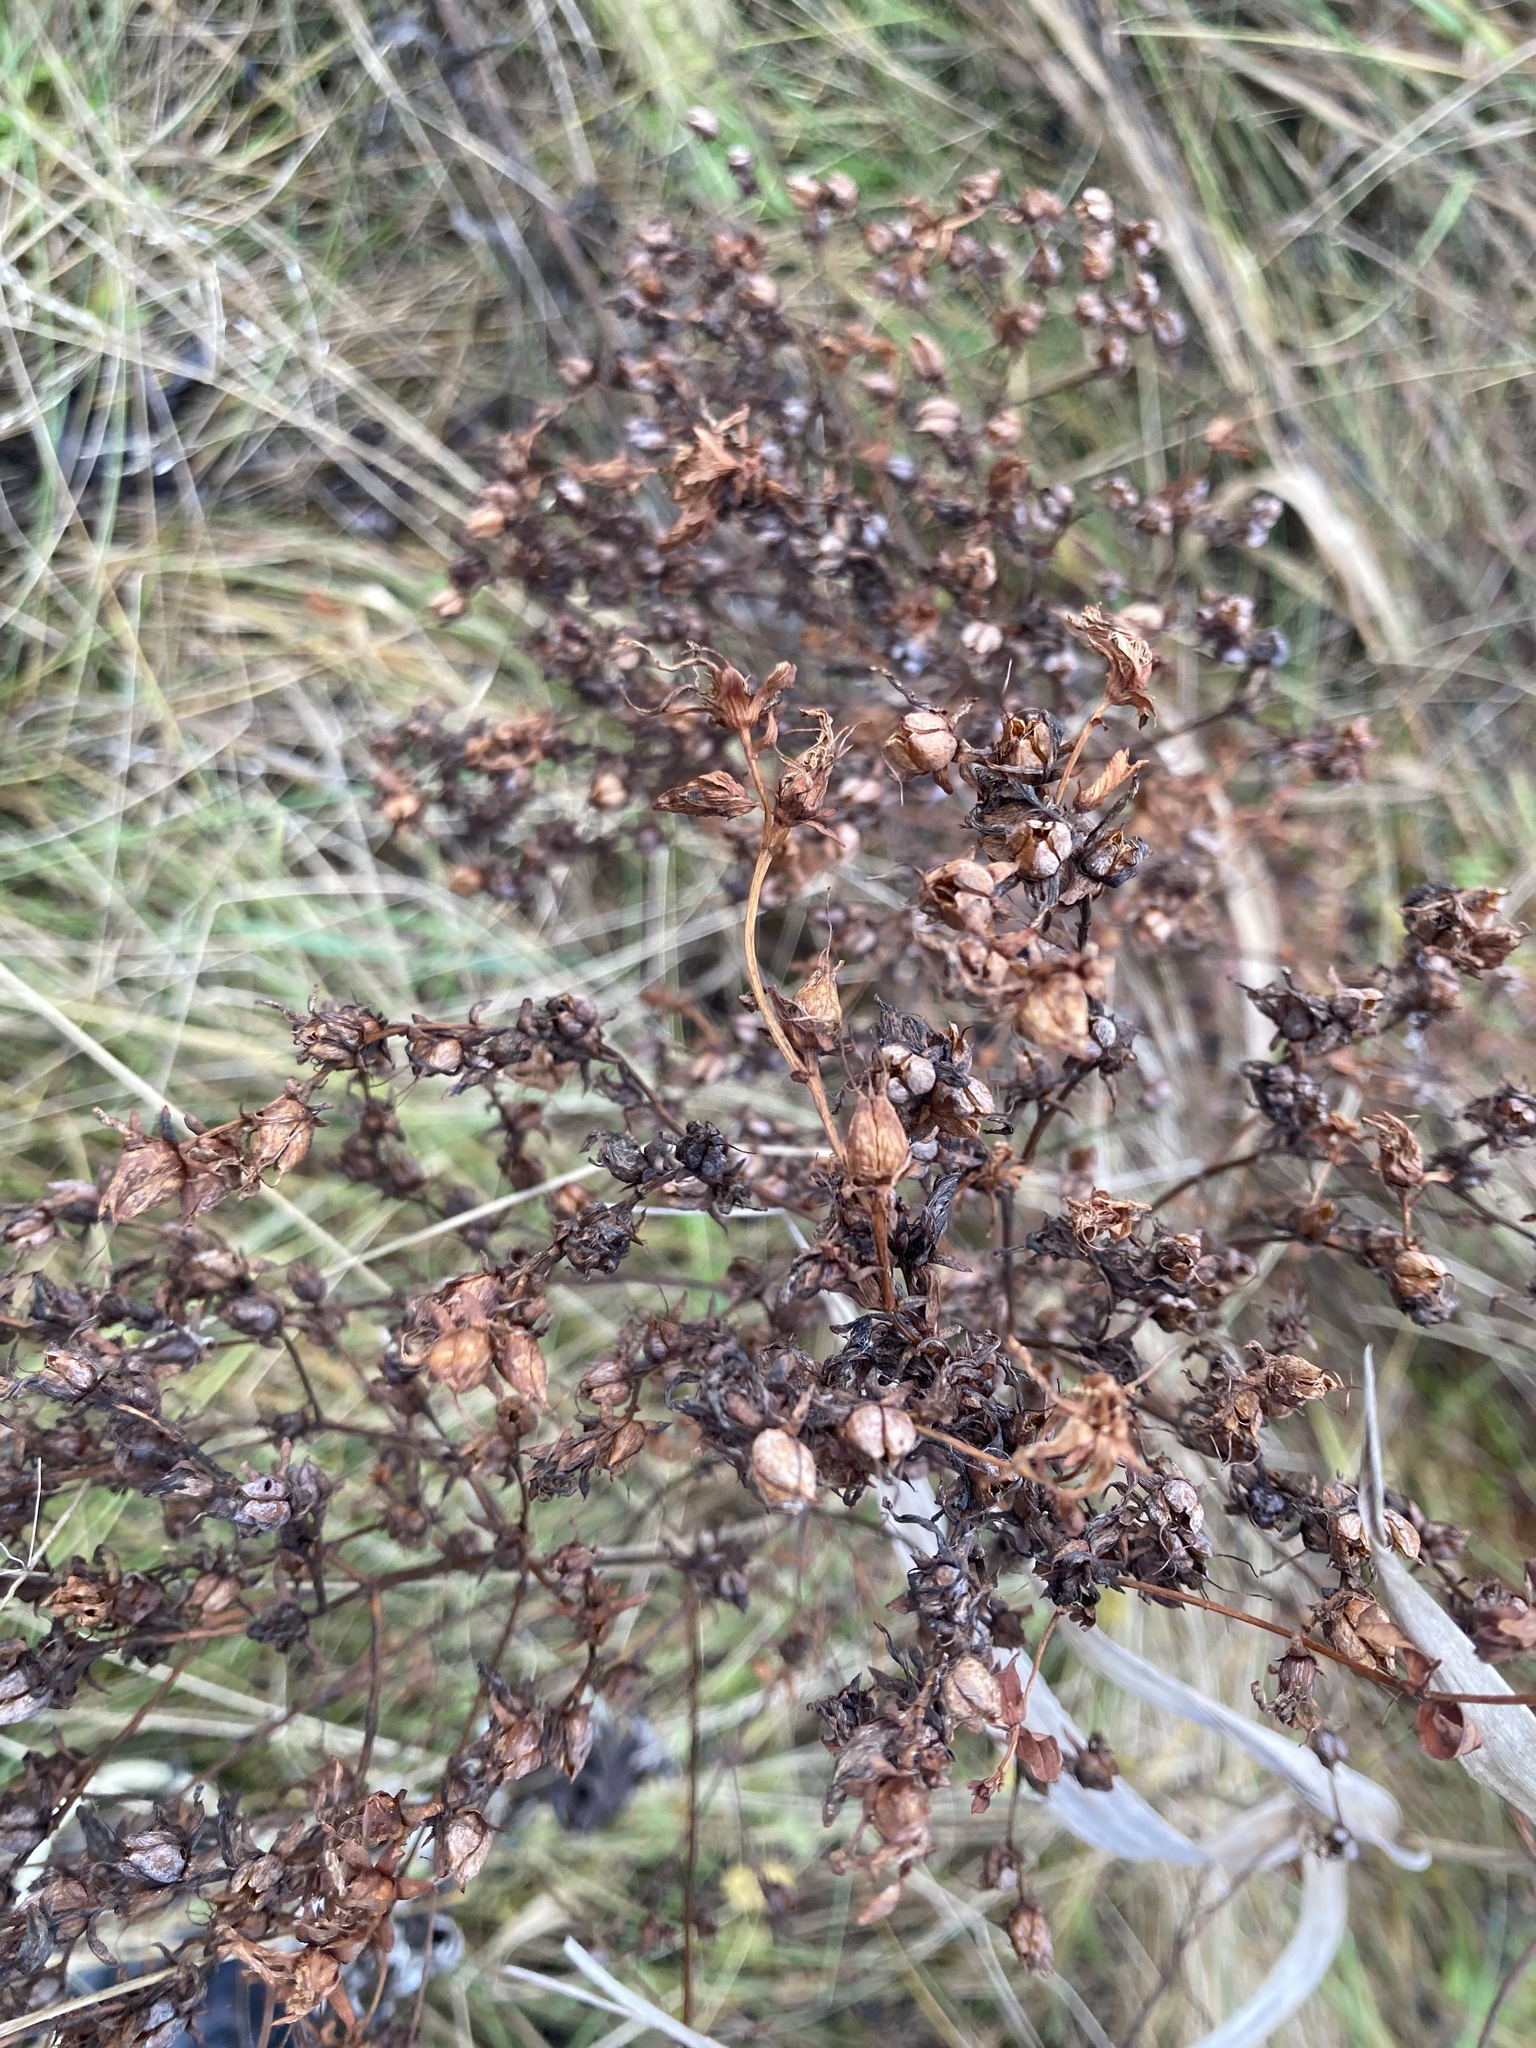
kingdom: Plantae
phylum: Tracheophyta
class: Magnoliopsida
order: Malpighiales
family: Hypericaceae
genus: Hypericum
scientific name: Hypericum perforatum
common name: Common st. johnswort
